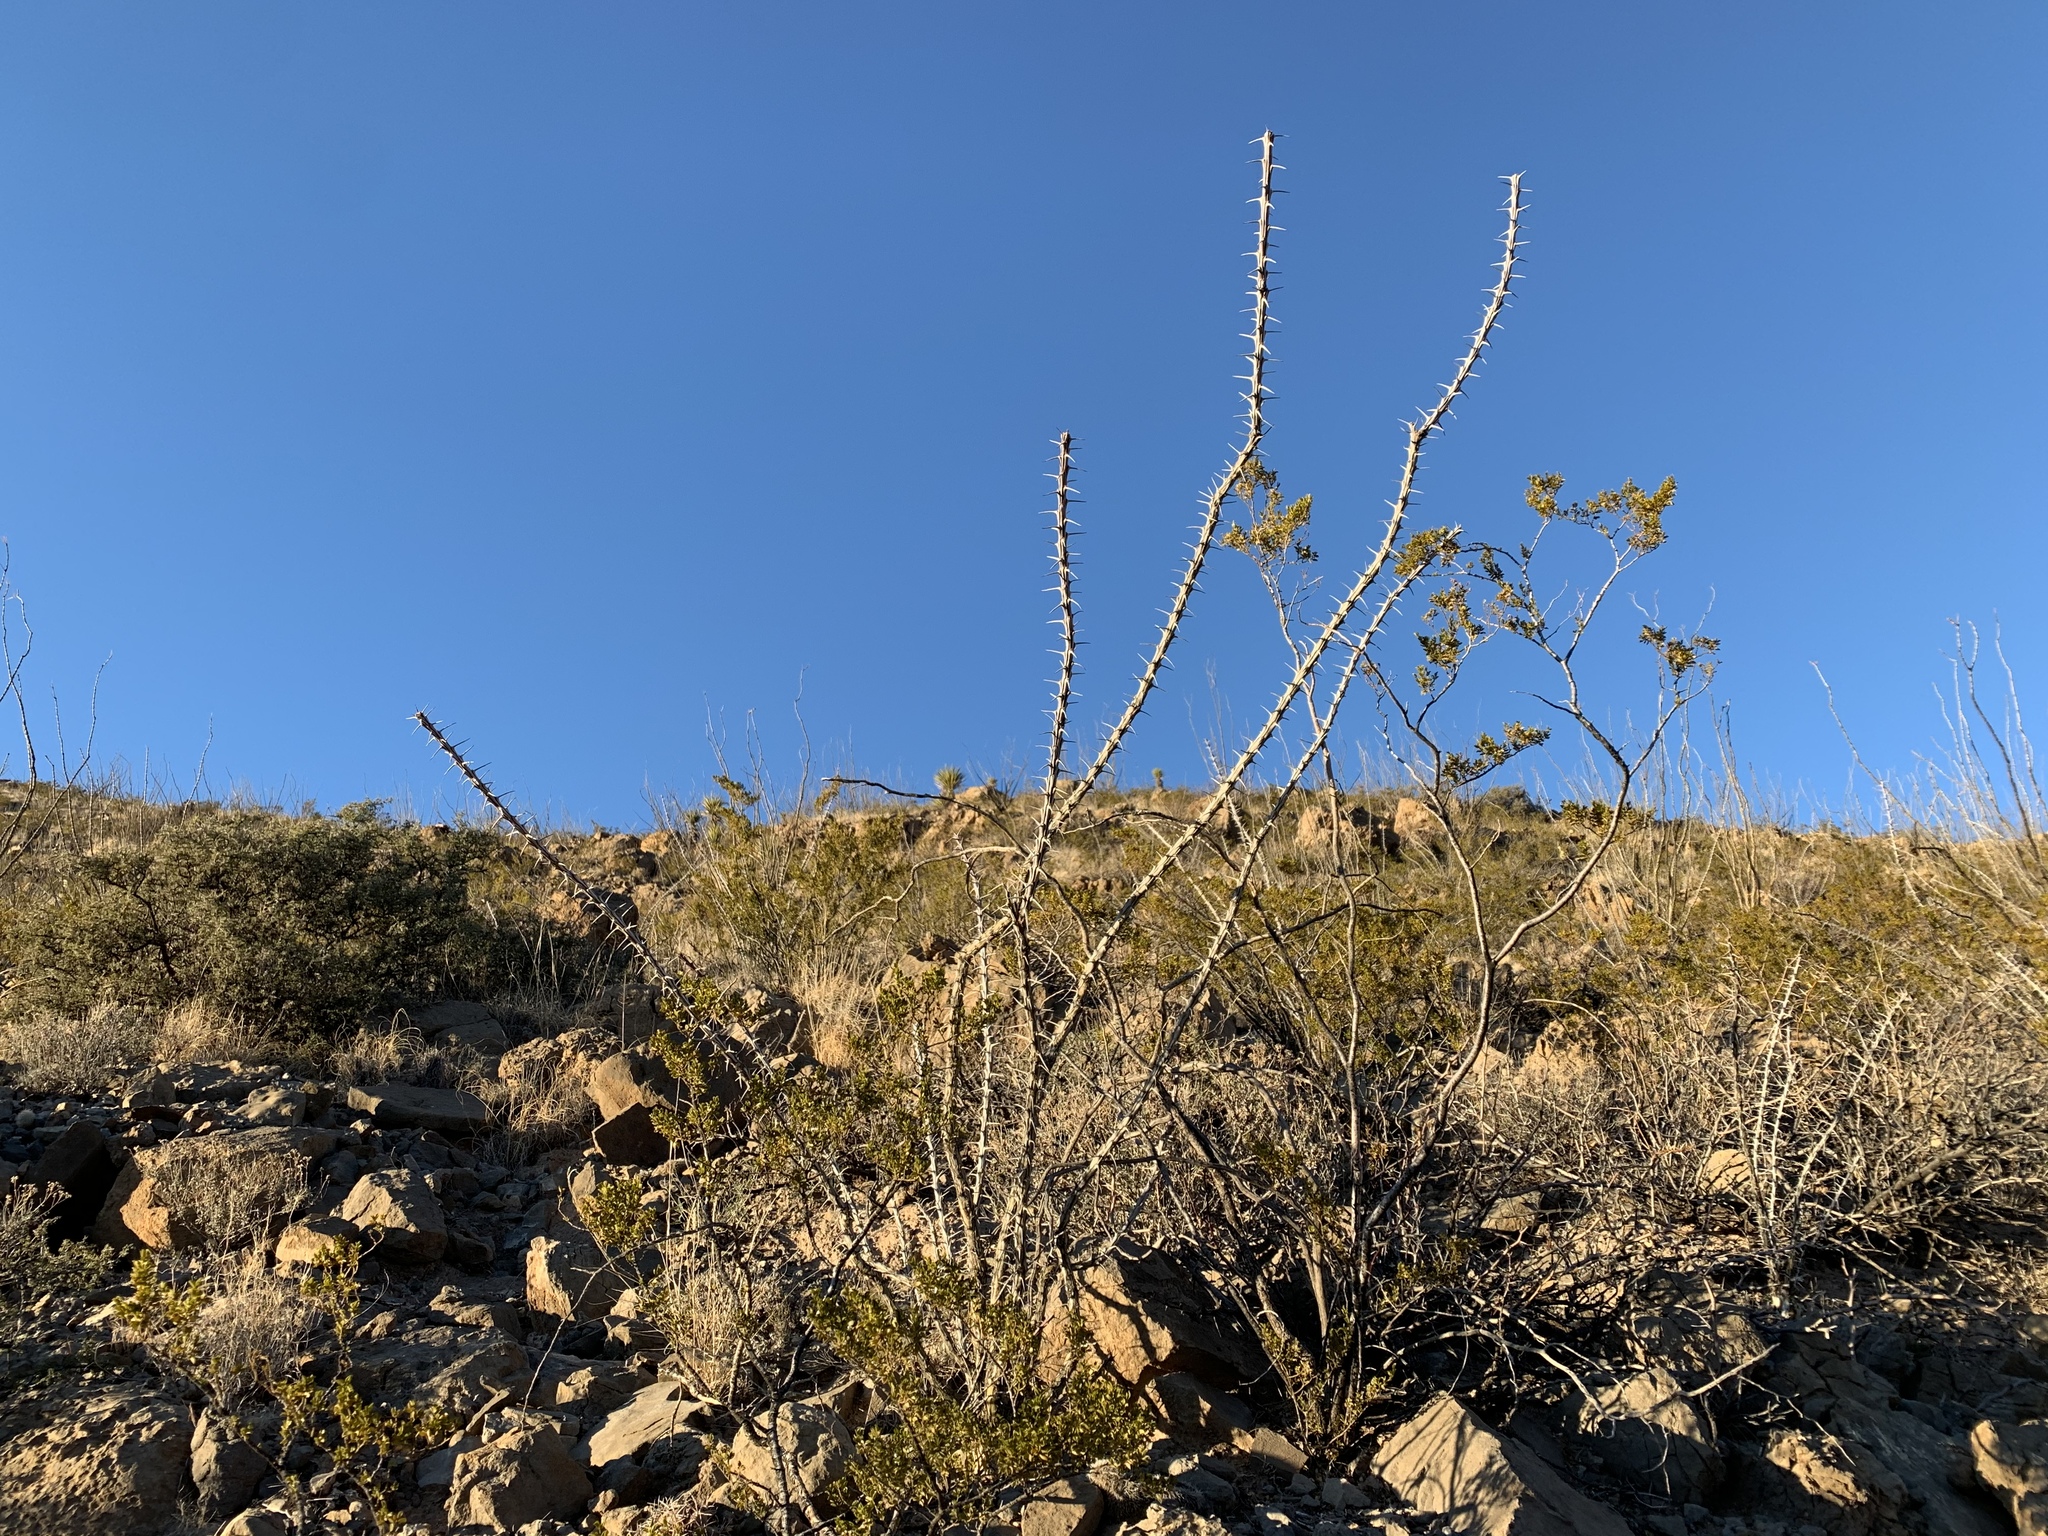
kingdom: Plantae
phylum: Tracheophyta
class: Magnoliopsida
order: Ericales
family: Fouquieriaceae
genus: Fouquieria
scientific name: Fouquieria splendens
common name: Vine-cactus
